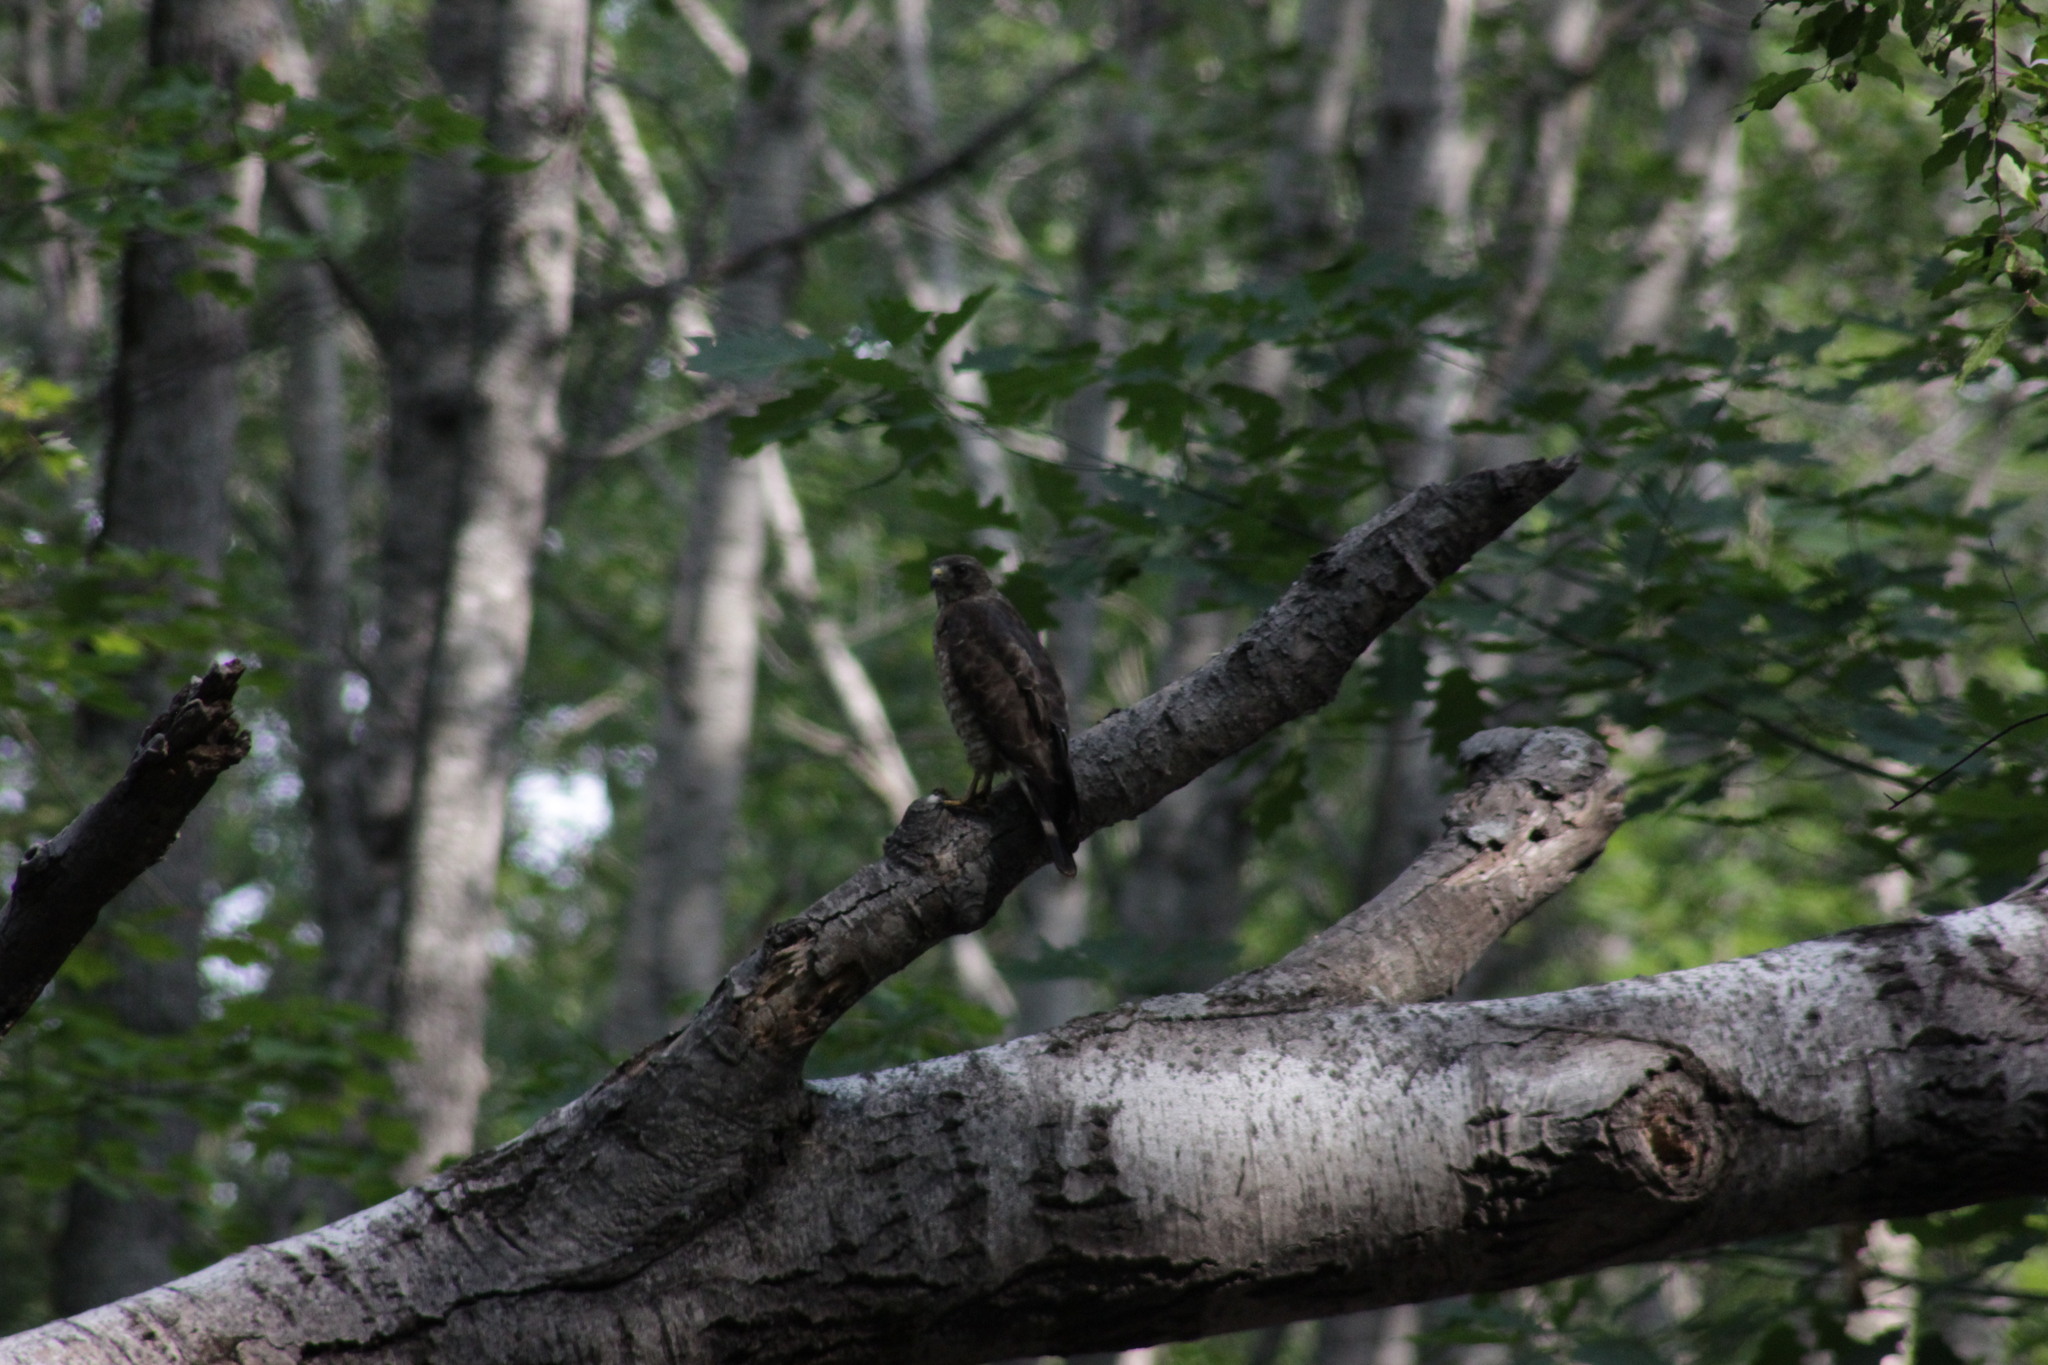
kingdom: Animalia
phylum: Chordata
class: Aves
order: Accipitriformes
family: Accipitridae
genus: Buteo
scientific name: Buteo platypterus
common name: Broad-winged hawk
